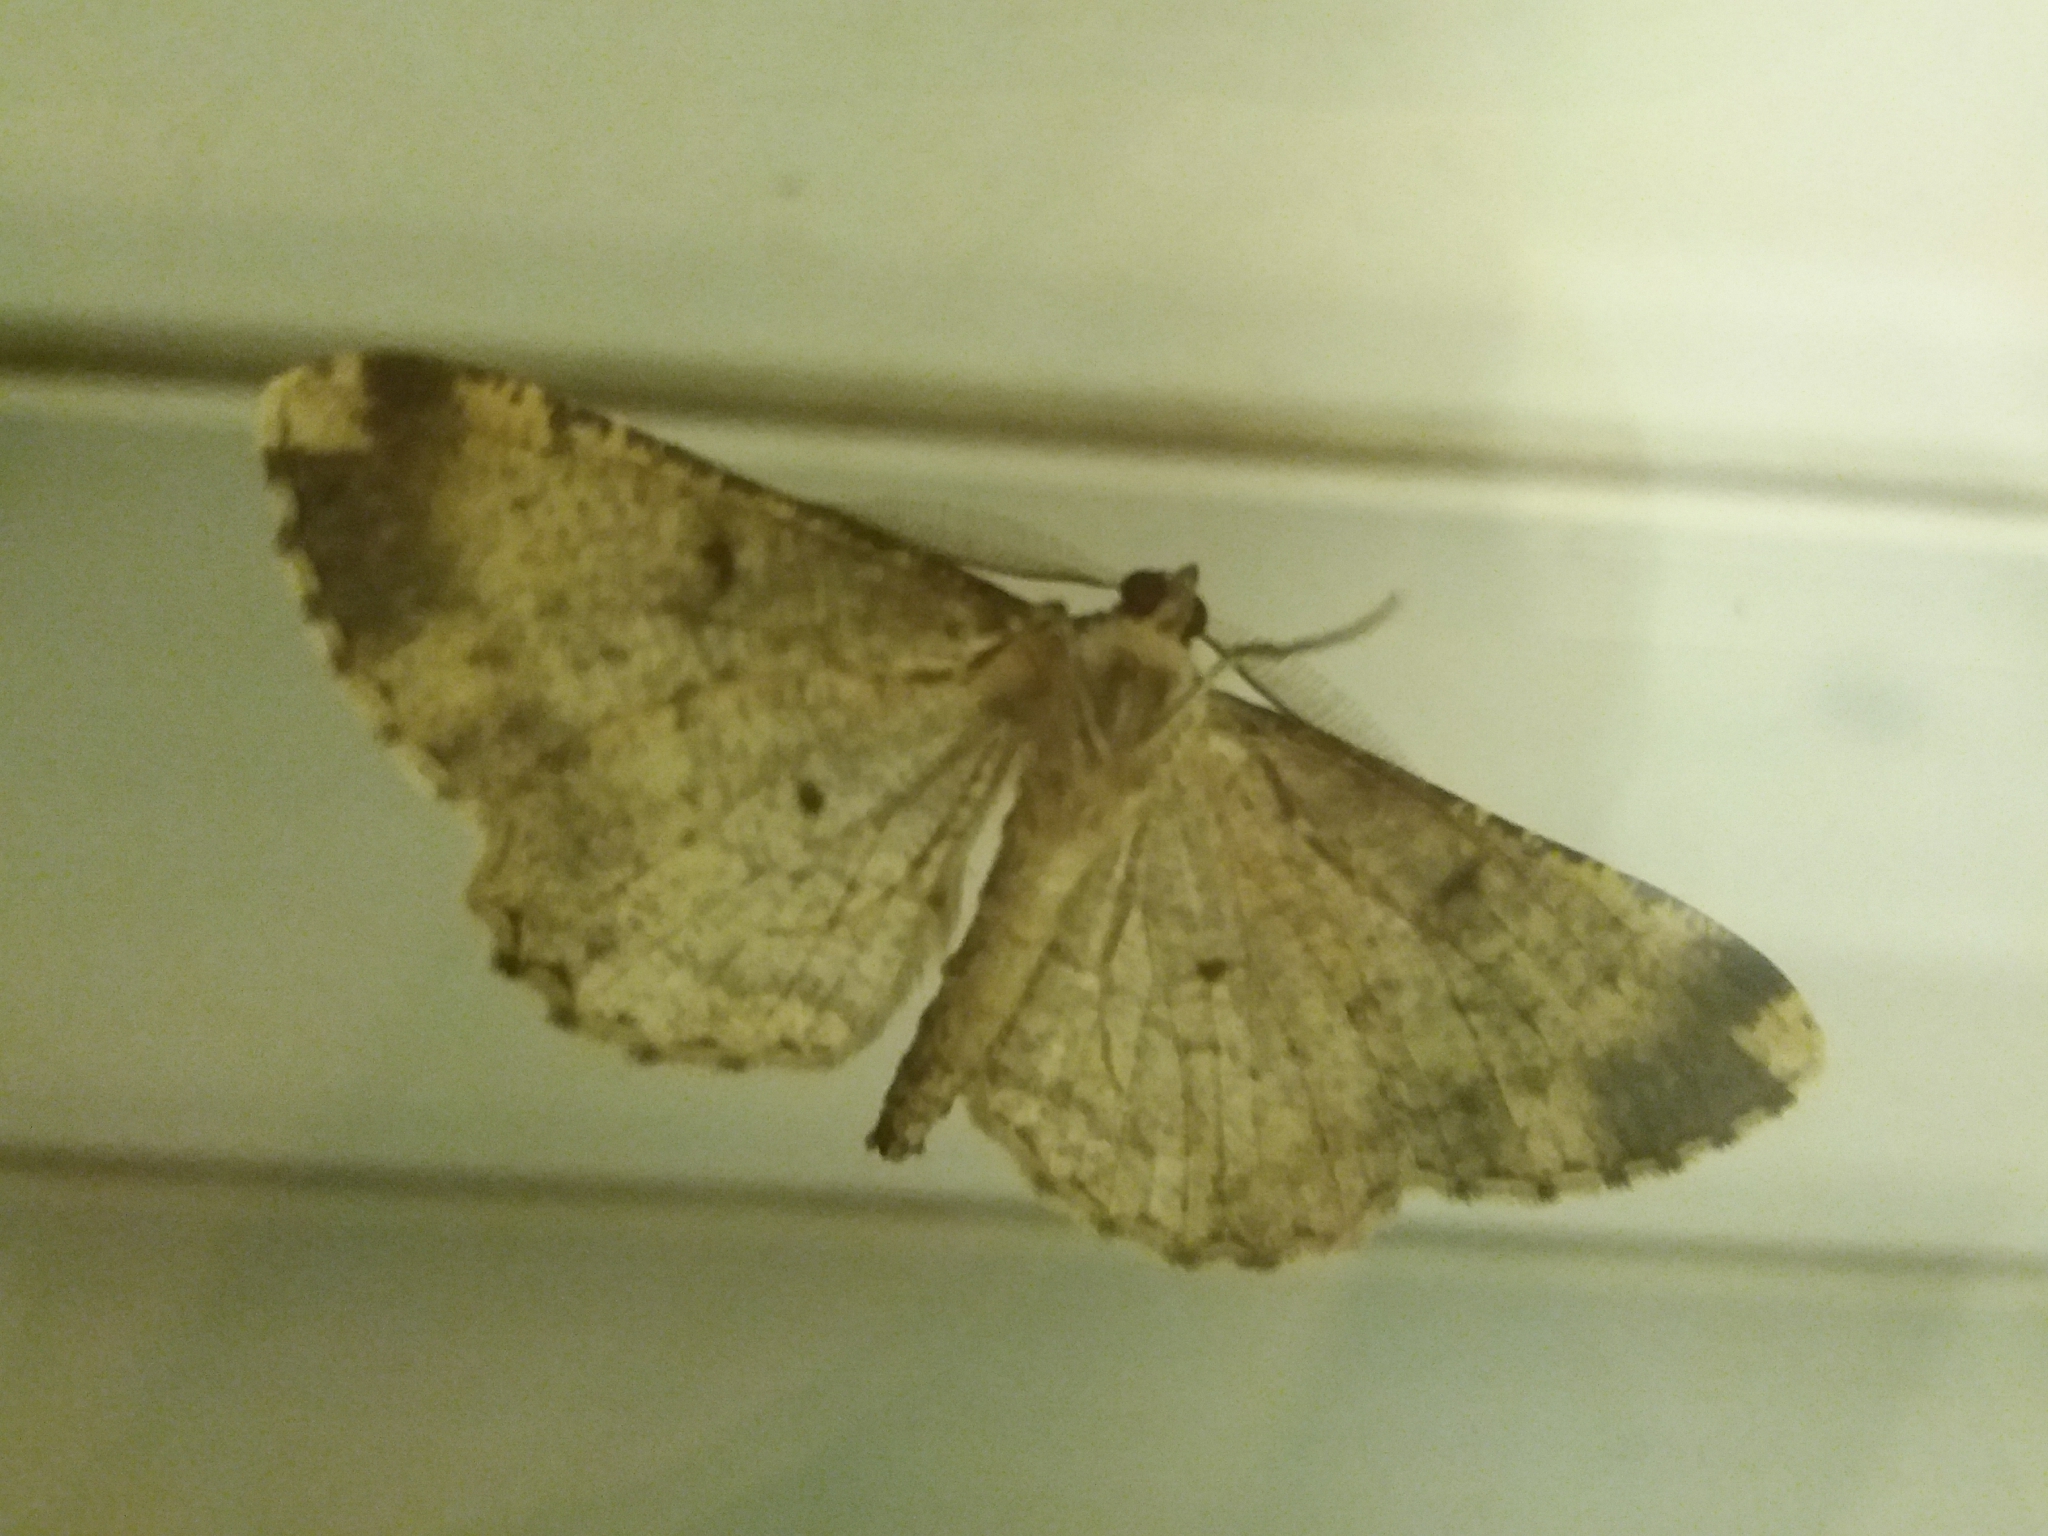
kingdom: Animalia
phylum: Arthropoda
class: Insecta
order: Lepidoptera
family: Geometridae
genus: Peribatodes
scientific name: Peribatodes rhomboidaria
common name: Willow beauty
